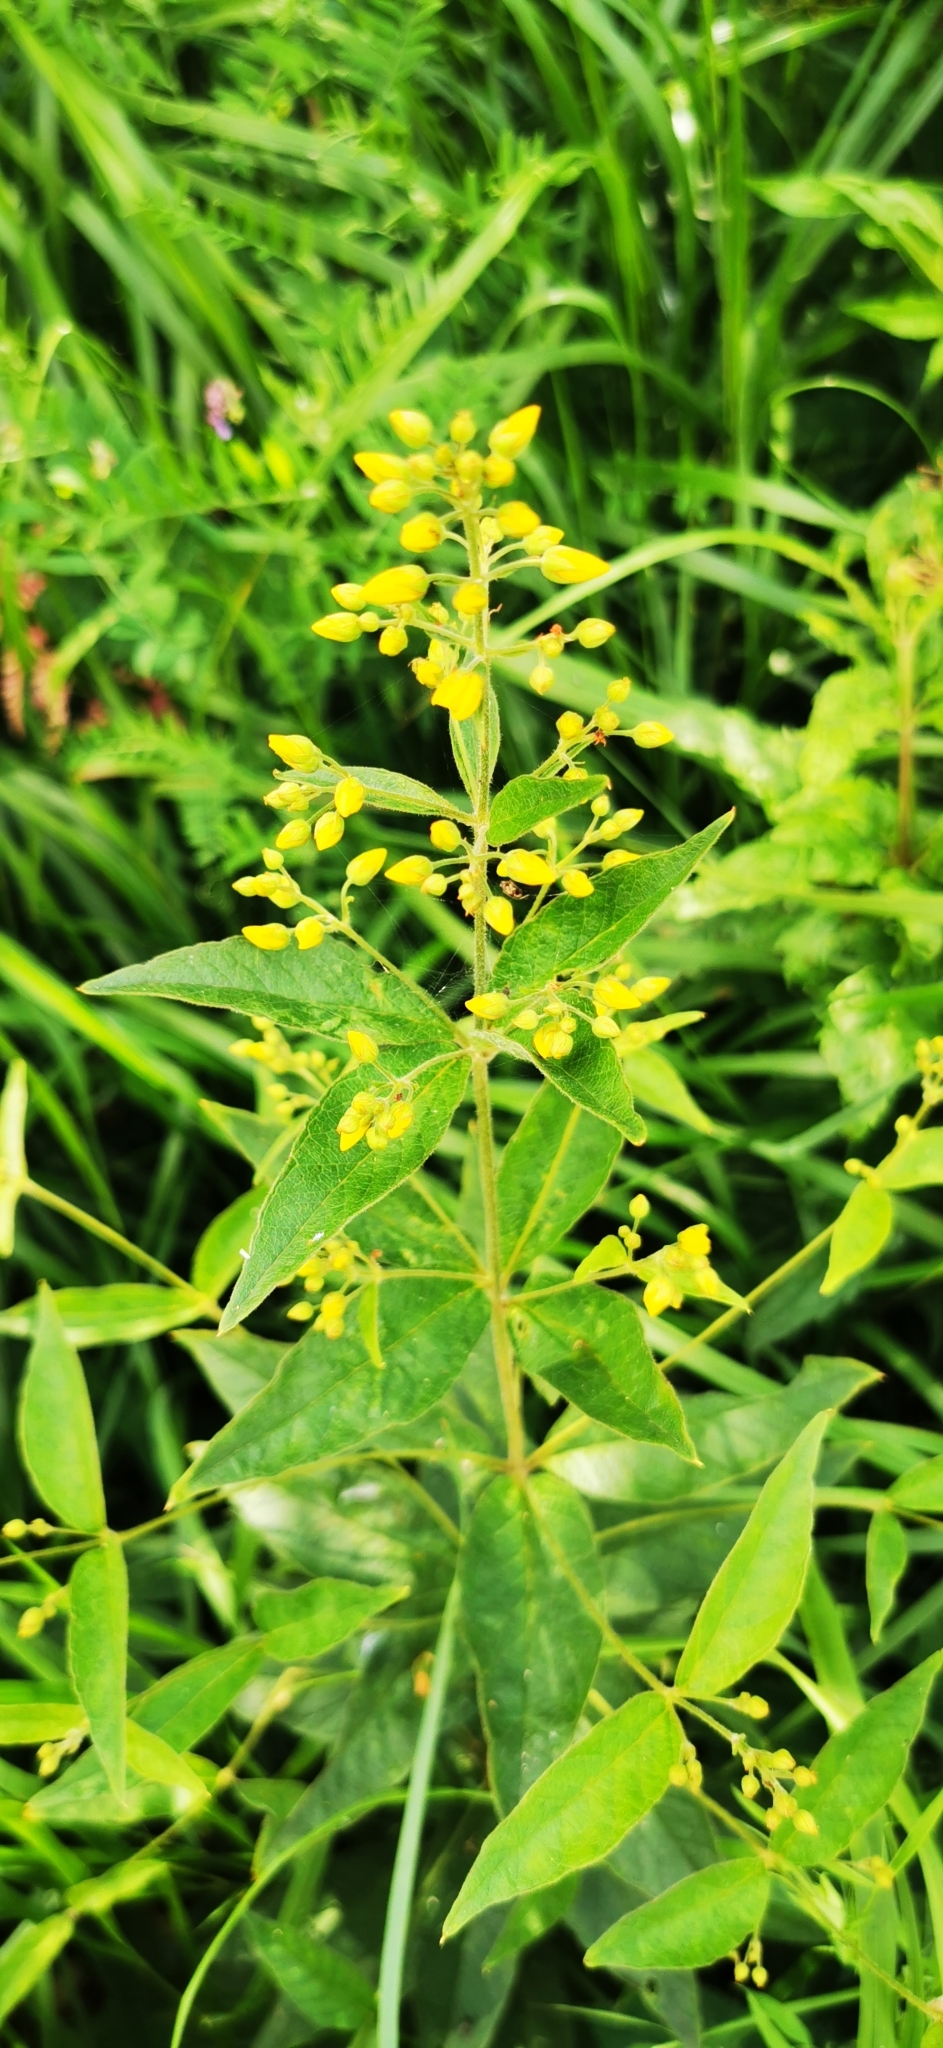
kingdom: Plantae
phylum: Tracheophyta
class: Magnoliopsida
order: Ericales
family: Primulaceae
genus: Lysimachia
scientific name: Lysimachia vulgaris
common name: Yellow loosestrife
